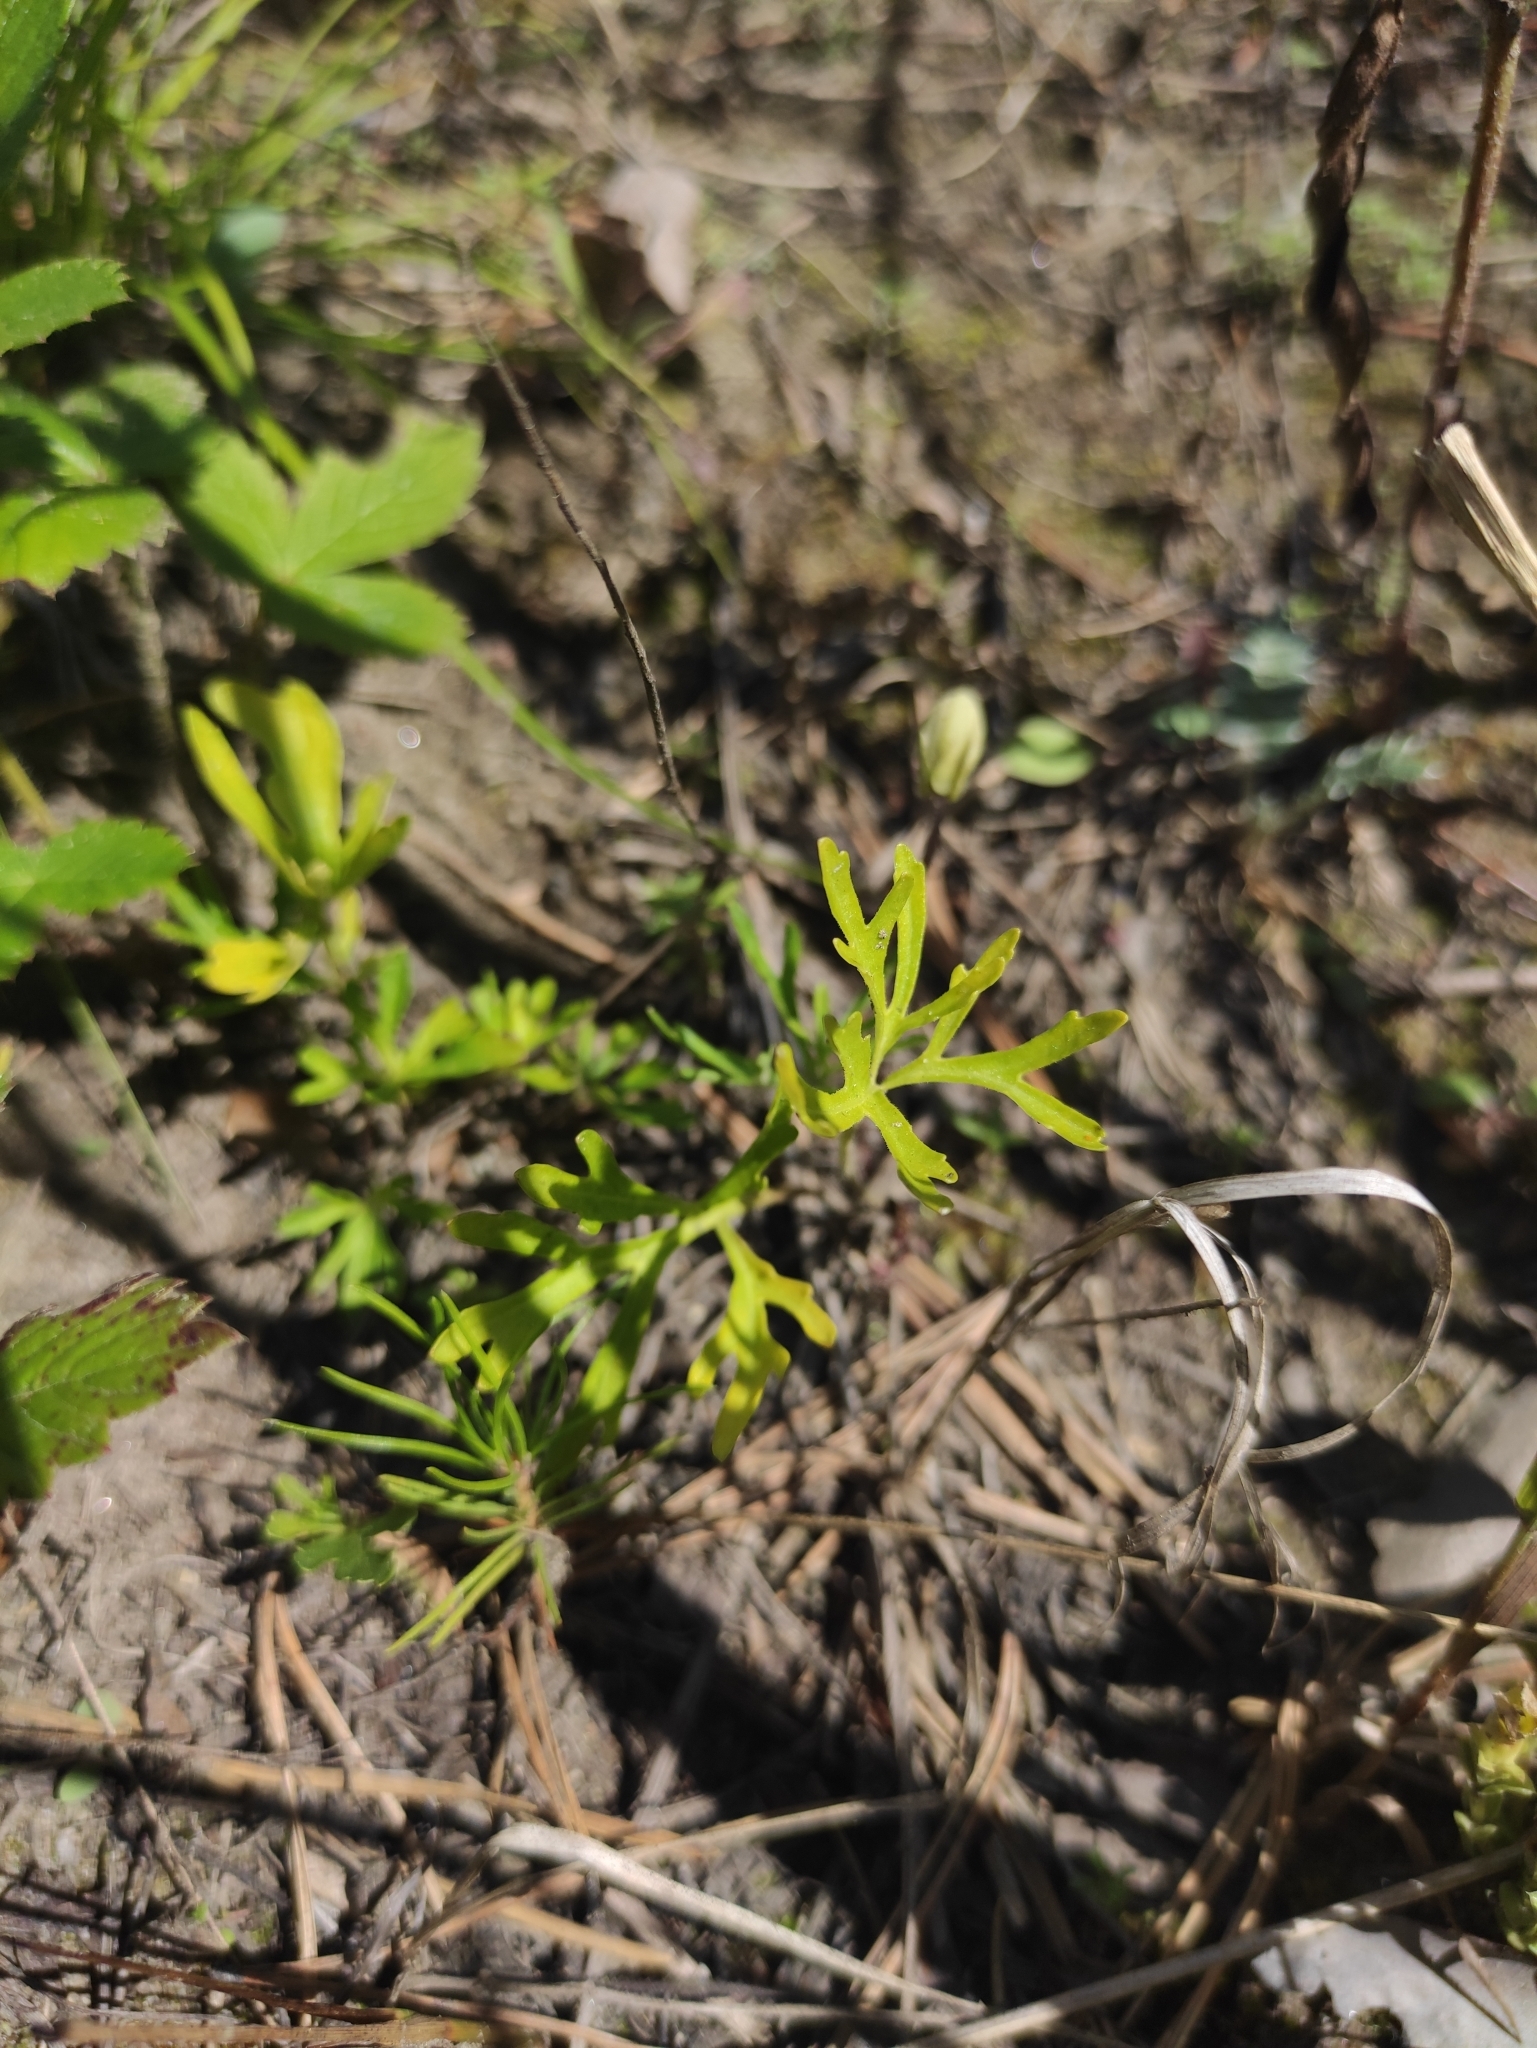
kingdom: Plantae
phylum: Tracheophyta
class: Magnoliopsida
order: Malpighiales
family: Violaceae
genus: Viola
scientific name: Viola multifida
